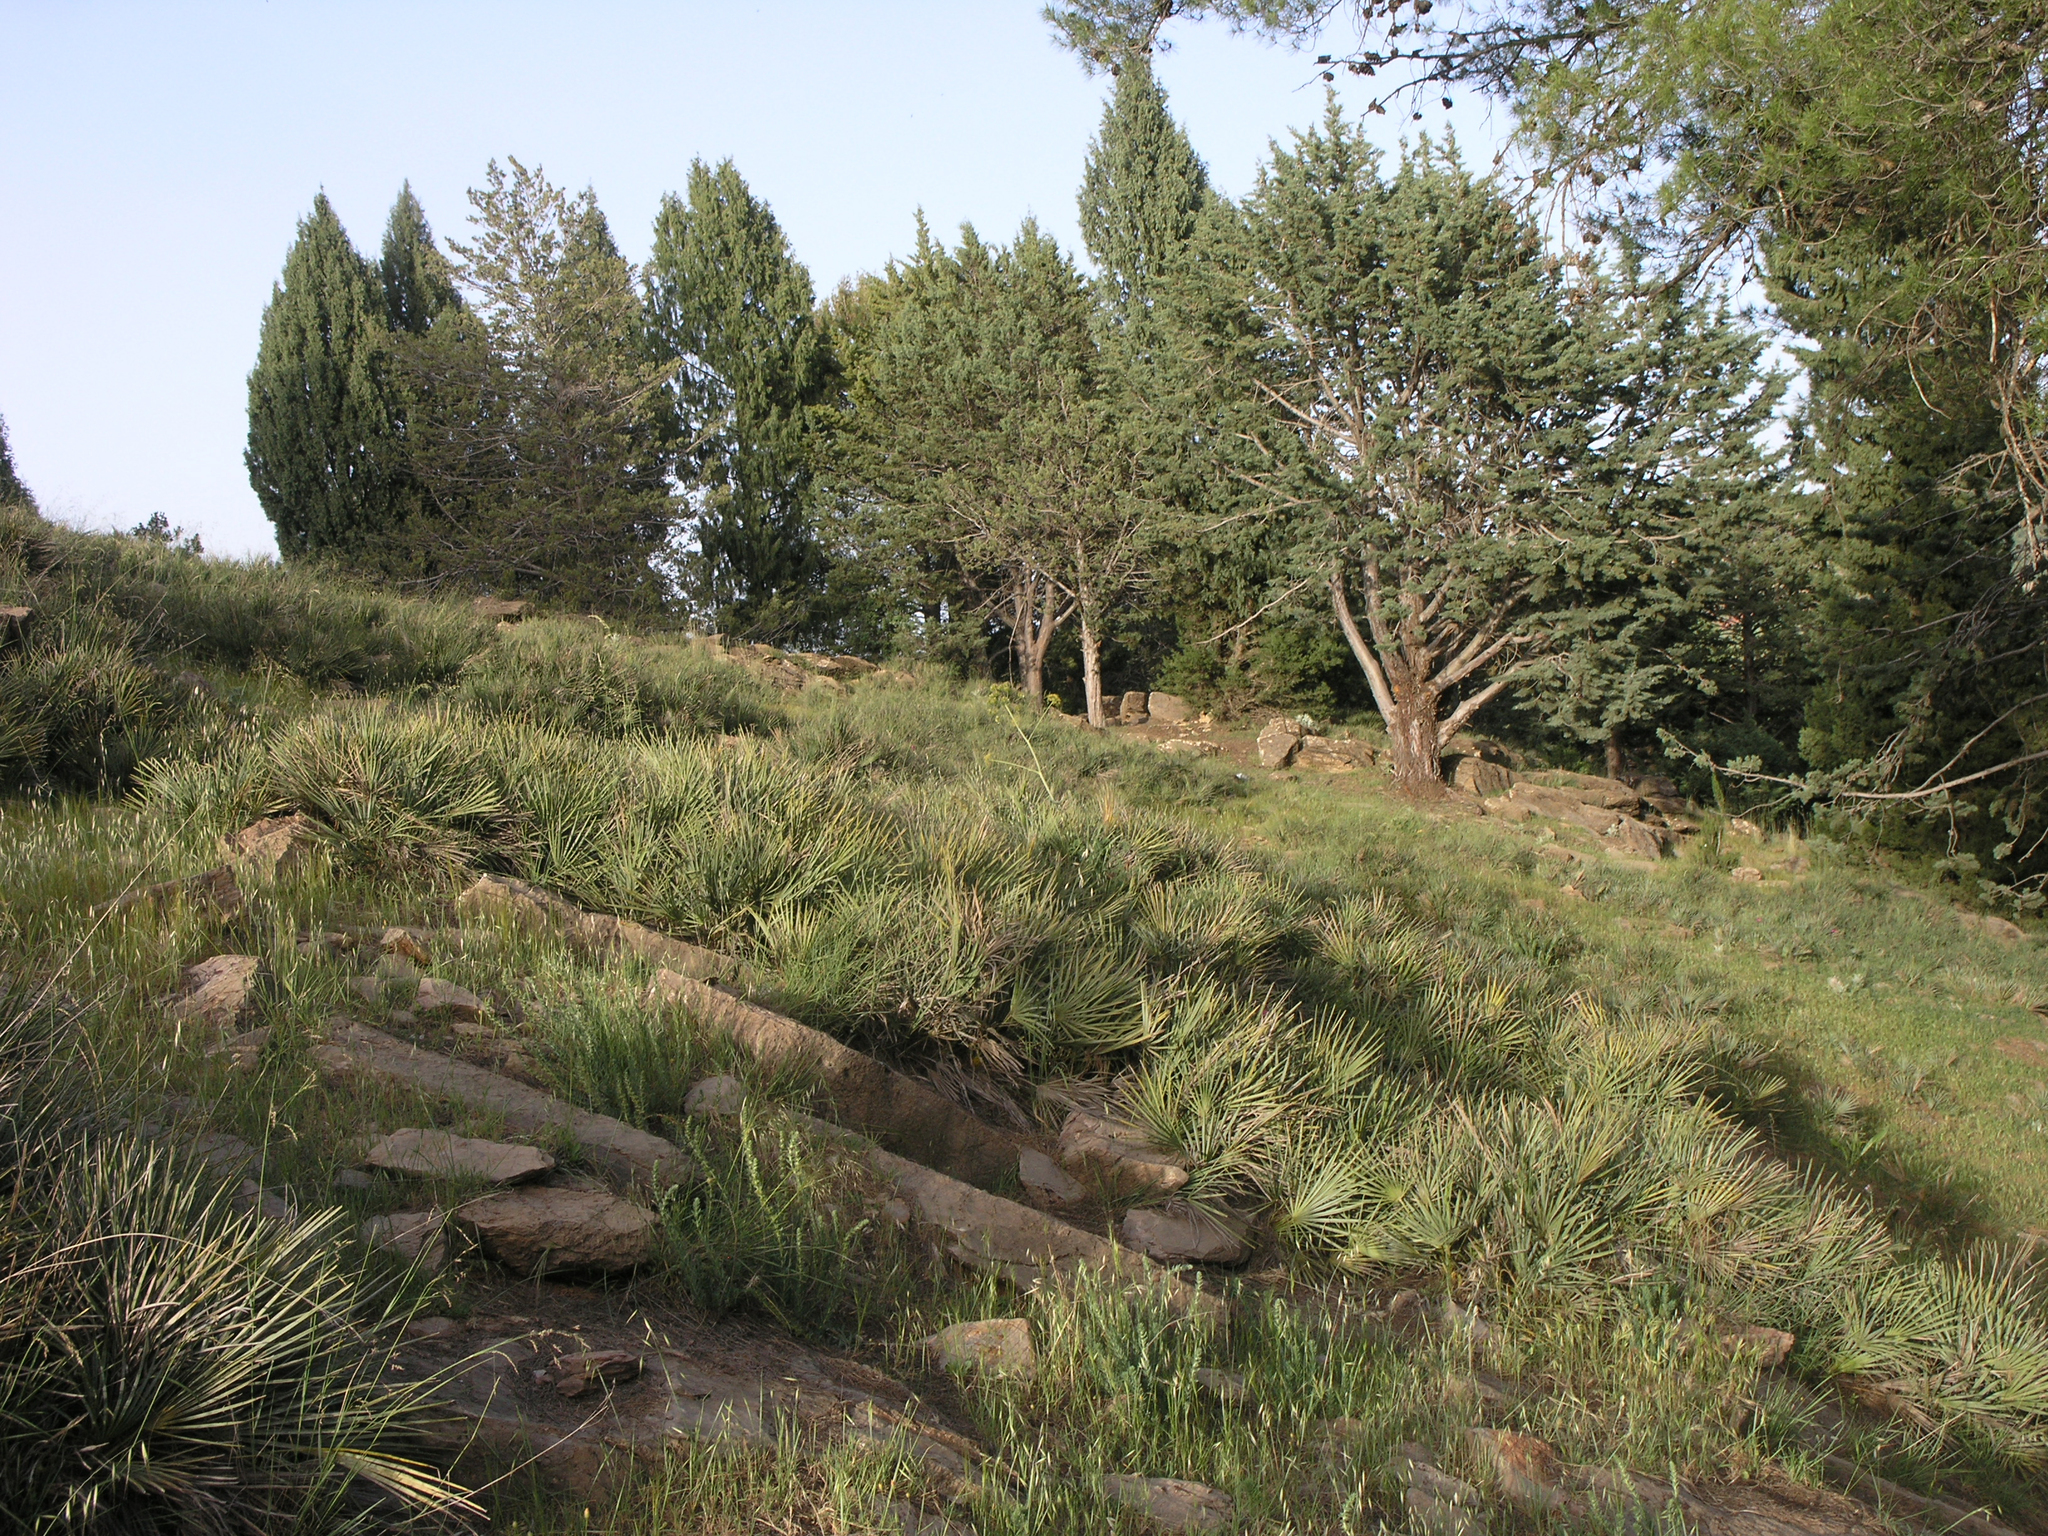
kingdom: Plantae
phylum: Tracheophyta
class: Liliopsida
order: Arecales
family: Arecaceae
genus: Chamaerops
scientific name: Chamaerops humilis
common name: Dwarf fan palm
